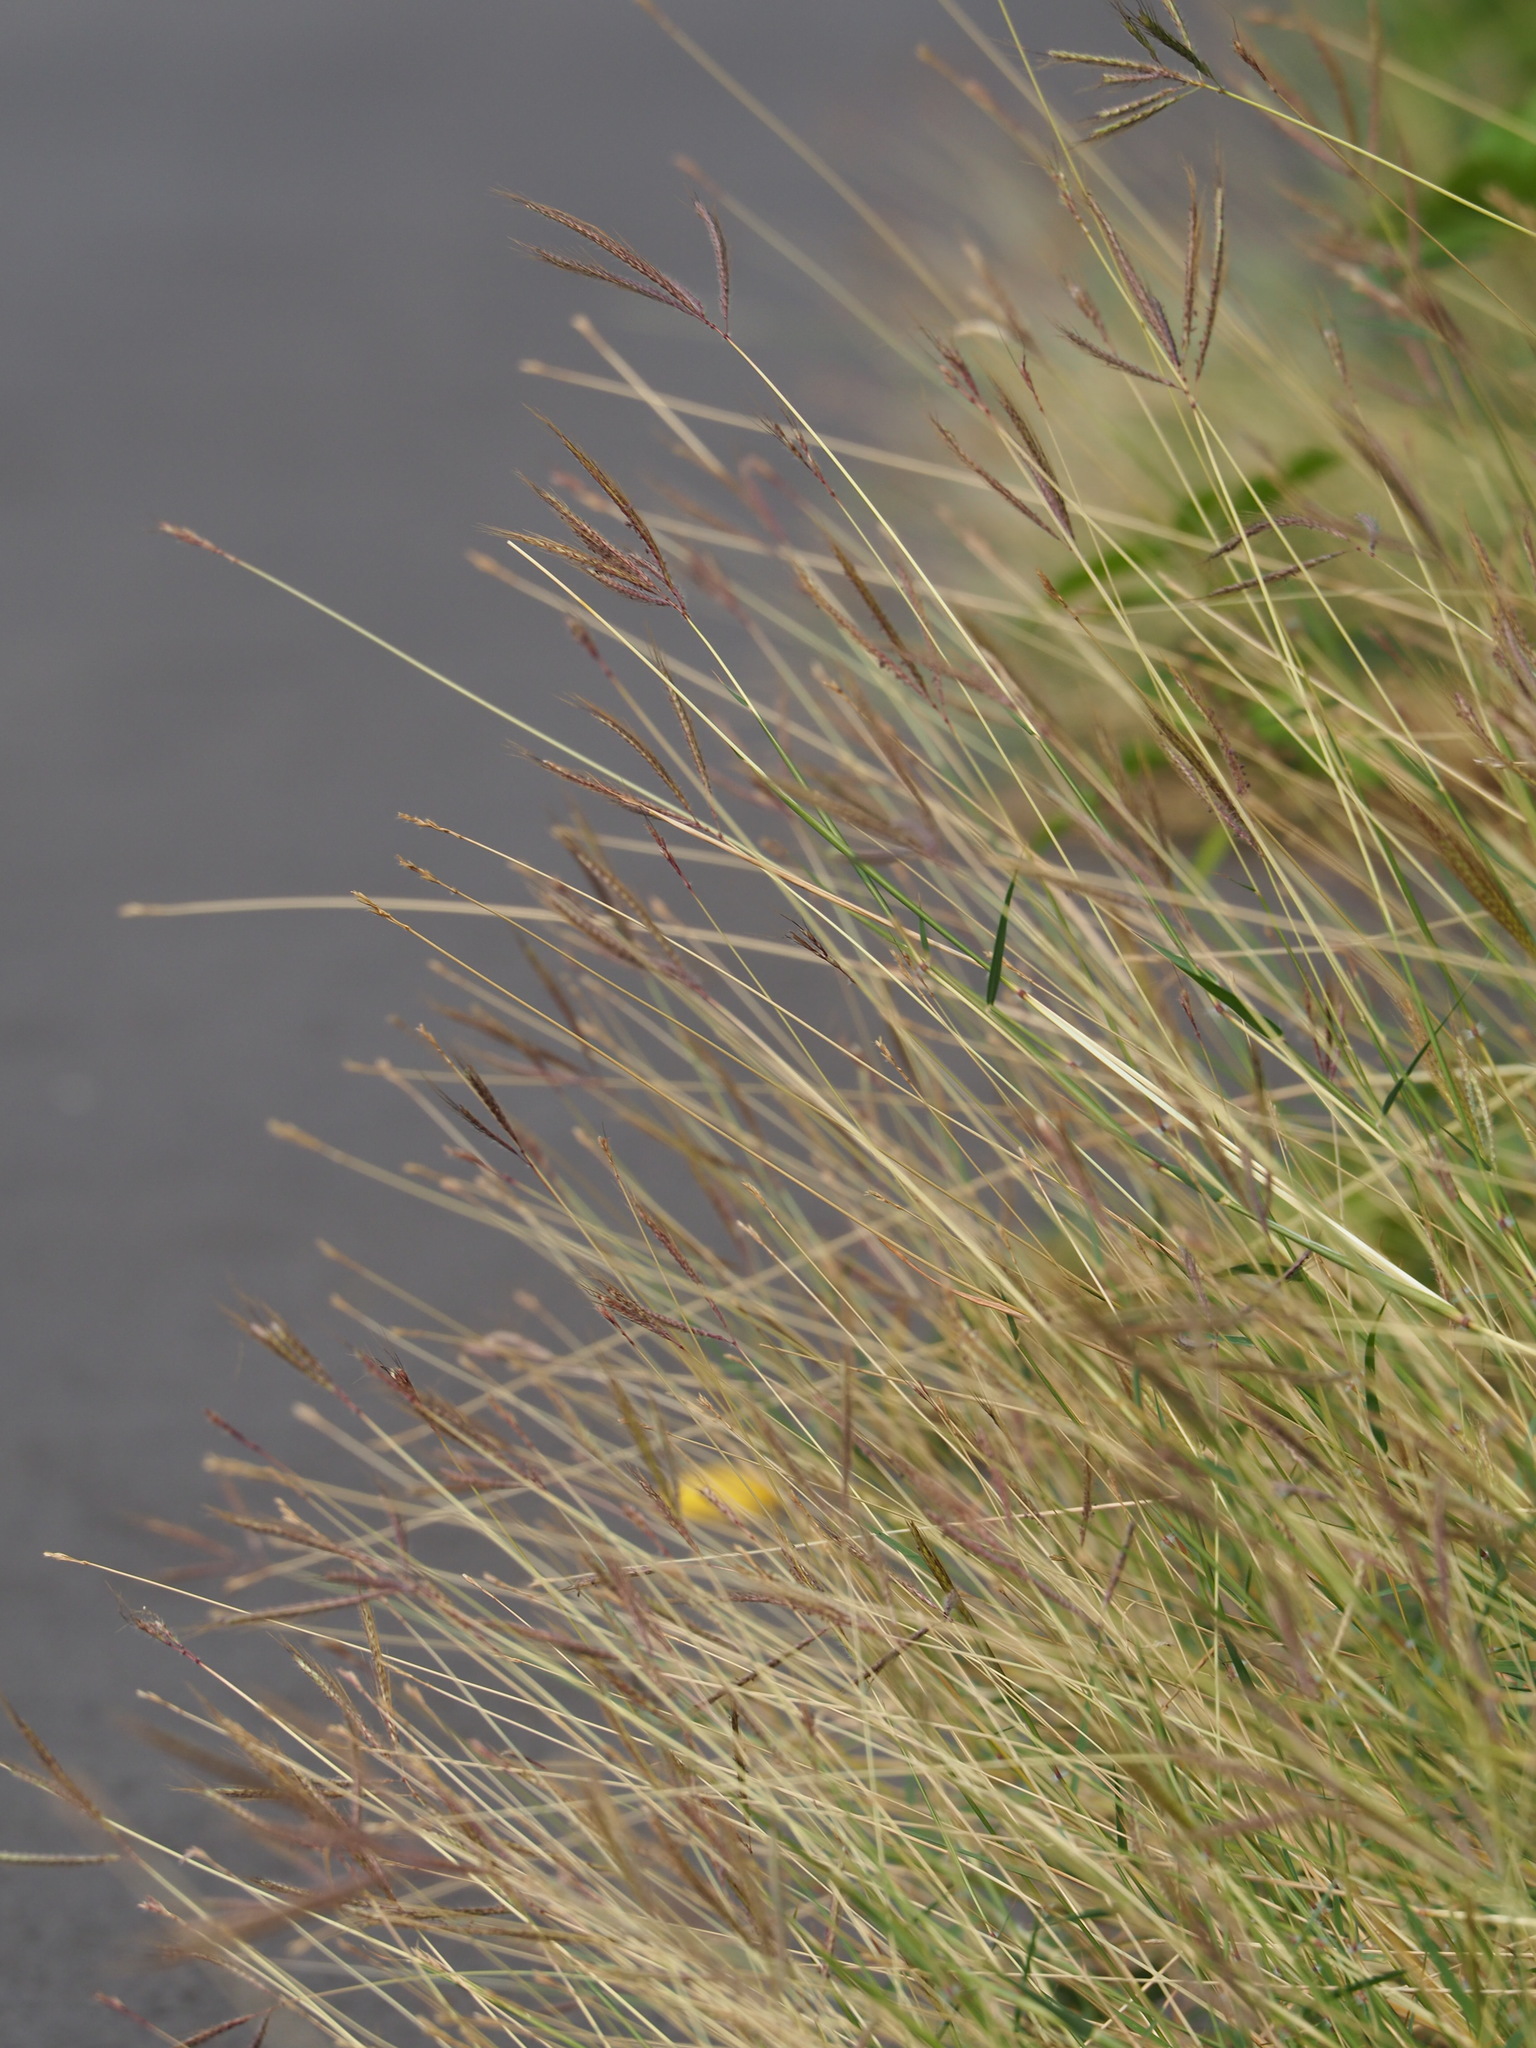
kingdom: Plantae
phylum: Tracheophyta
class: Liliopsida
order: Poales
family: Poaceae
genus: Dichanthium
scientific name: Dichanthium annulatum
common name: Kleberg's bluestem
